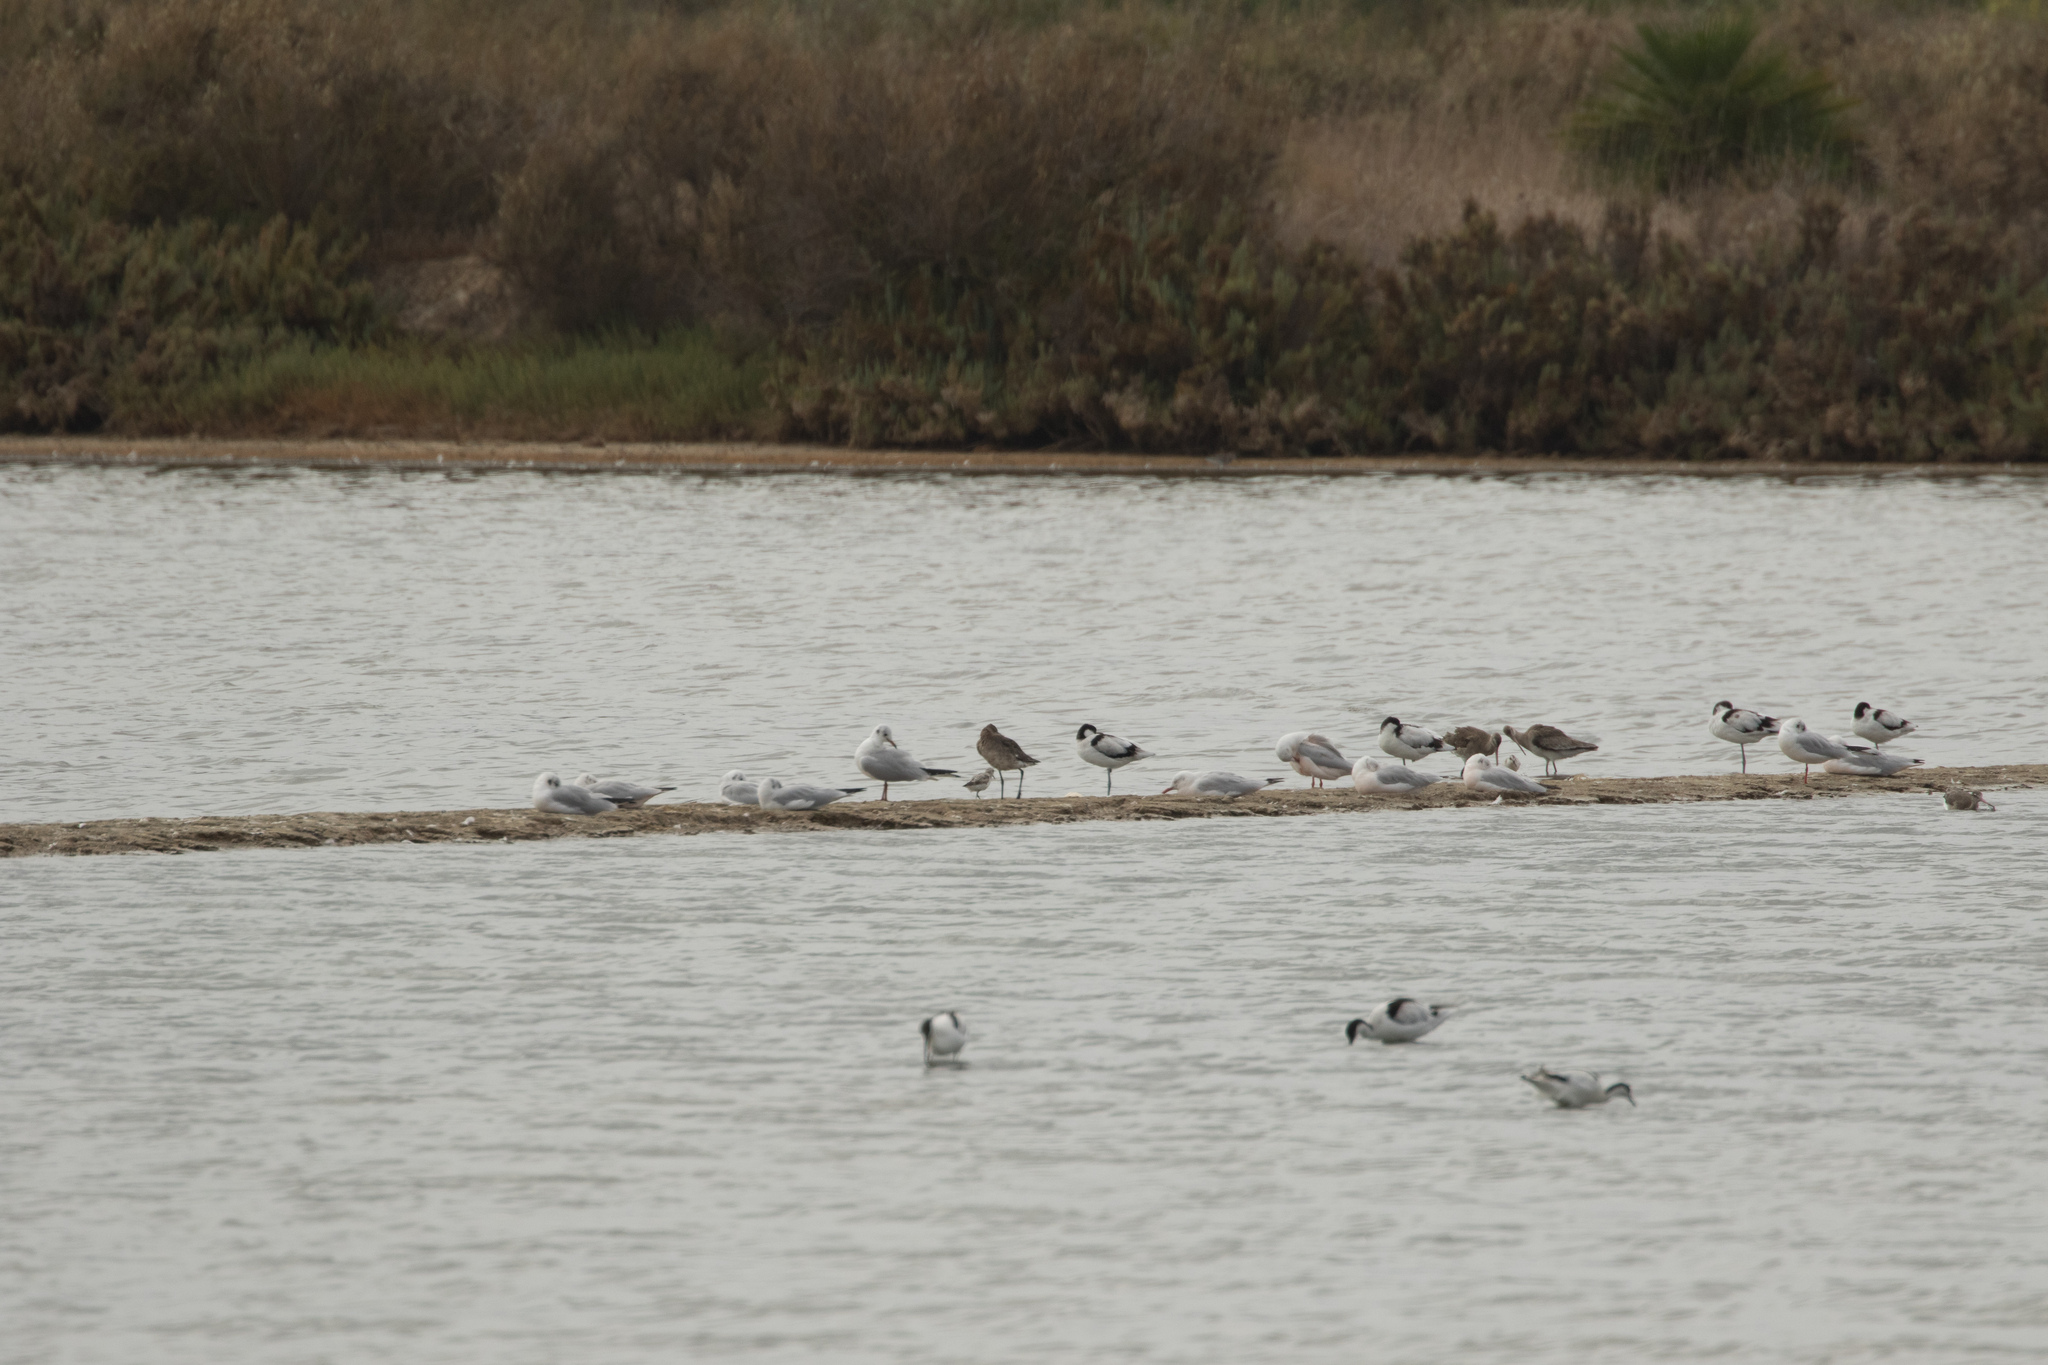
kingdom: Animalia
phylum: Chordata
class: Aves
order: Charadriiformes
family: Scolopacidae
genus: Limosa
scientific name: Limosa limosa
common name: Black-tailed godwit
